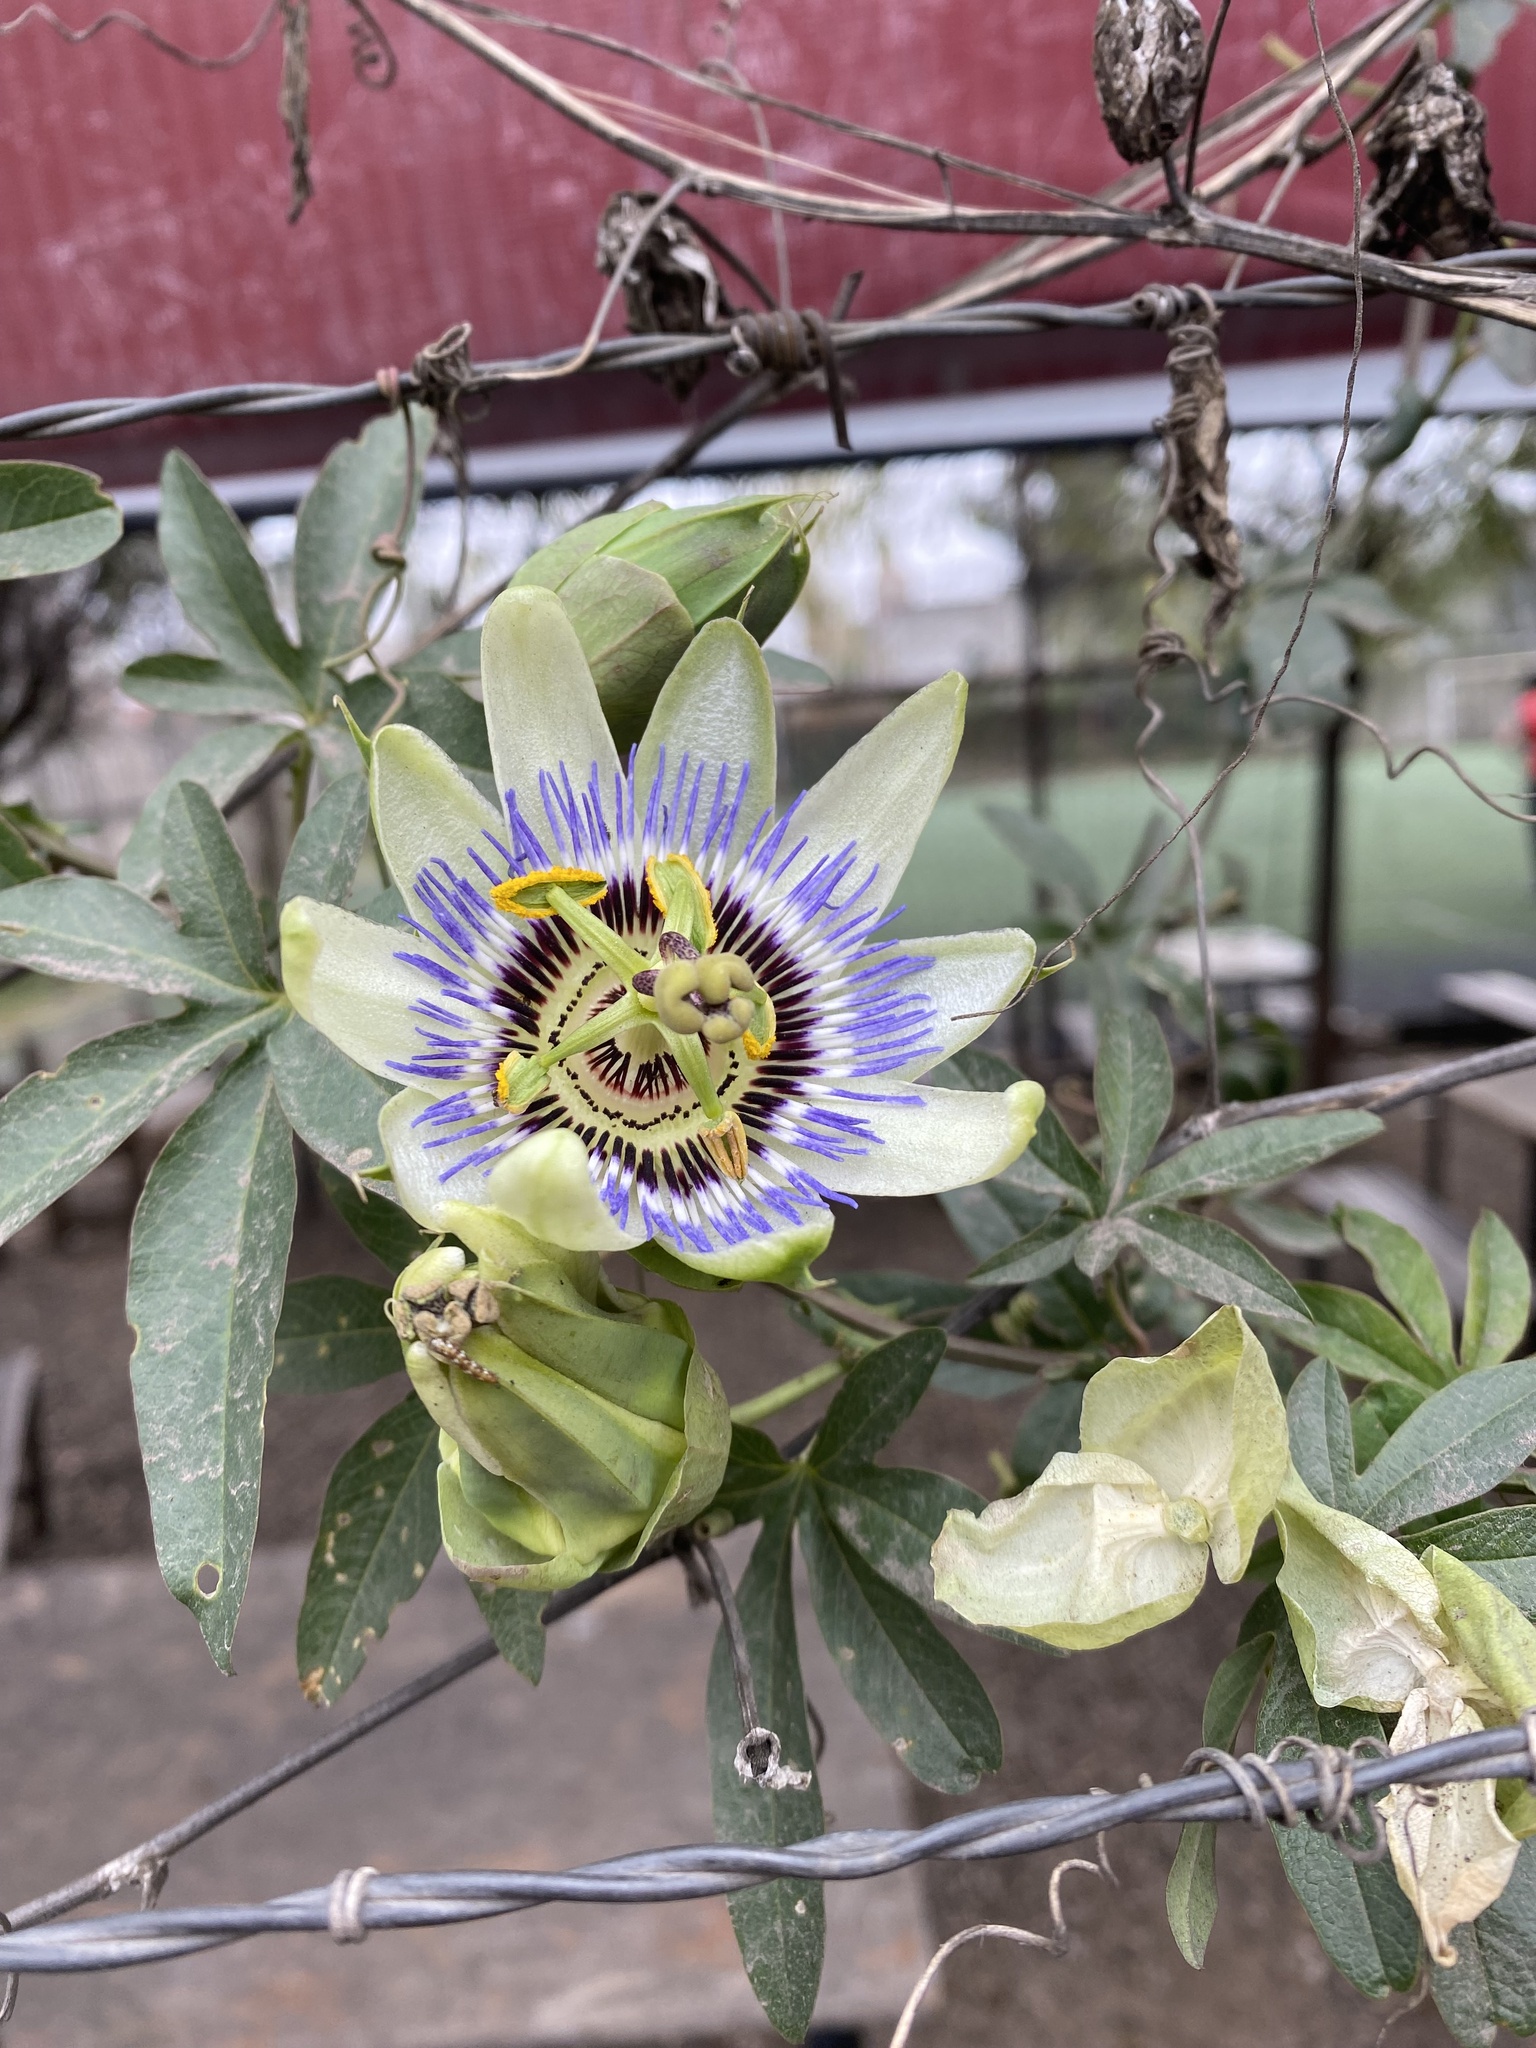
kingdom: Plantae
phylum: Tracheophyta
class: Magnoliopsida
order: Malpighiales
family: Passifloraceae
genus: Passiflora
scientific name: Passiflora caerulea
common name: Blue passionflower
